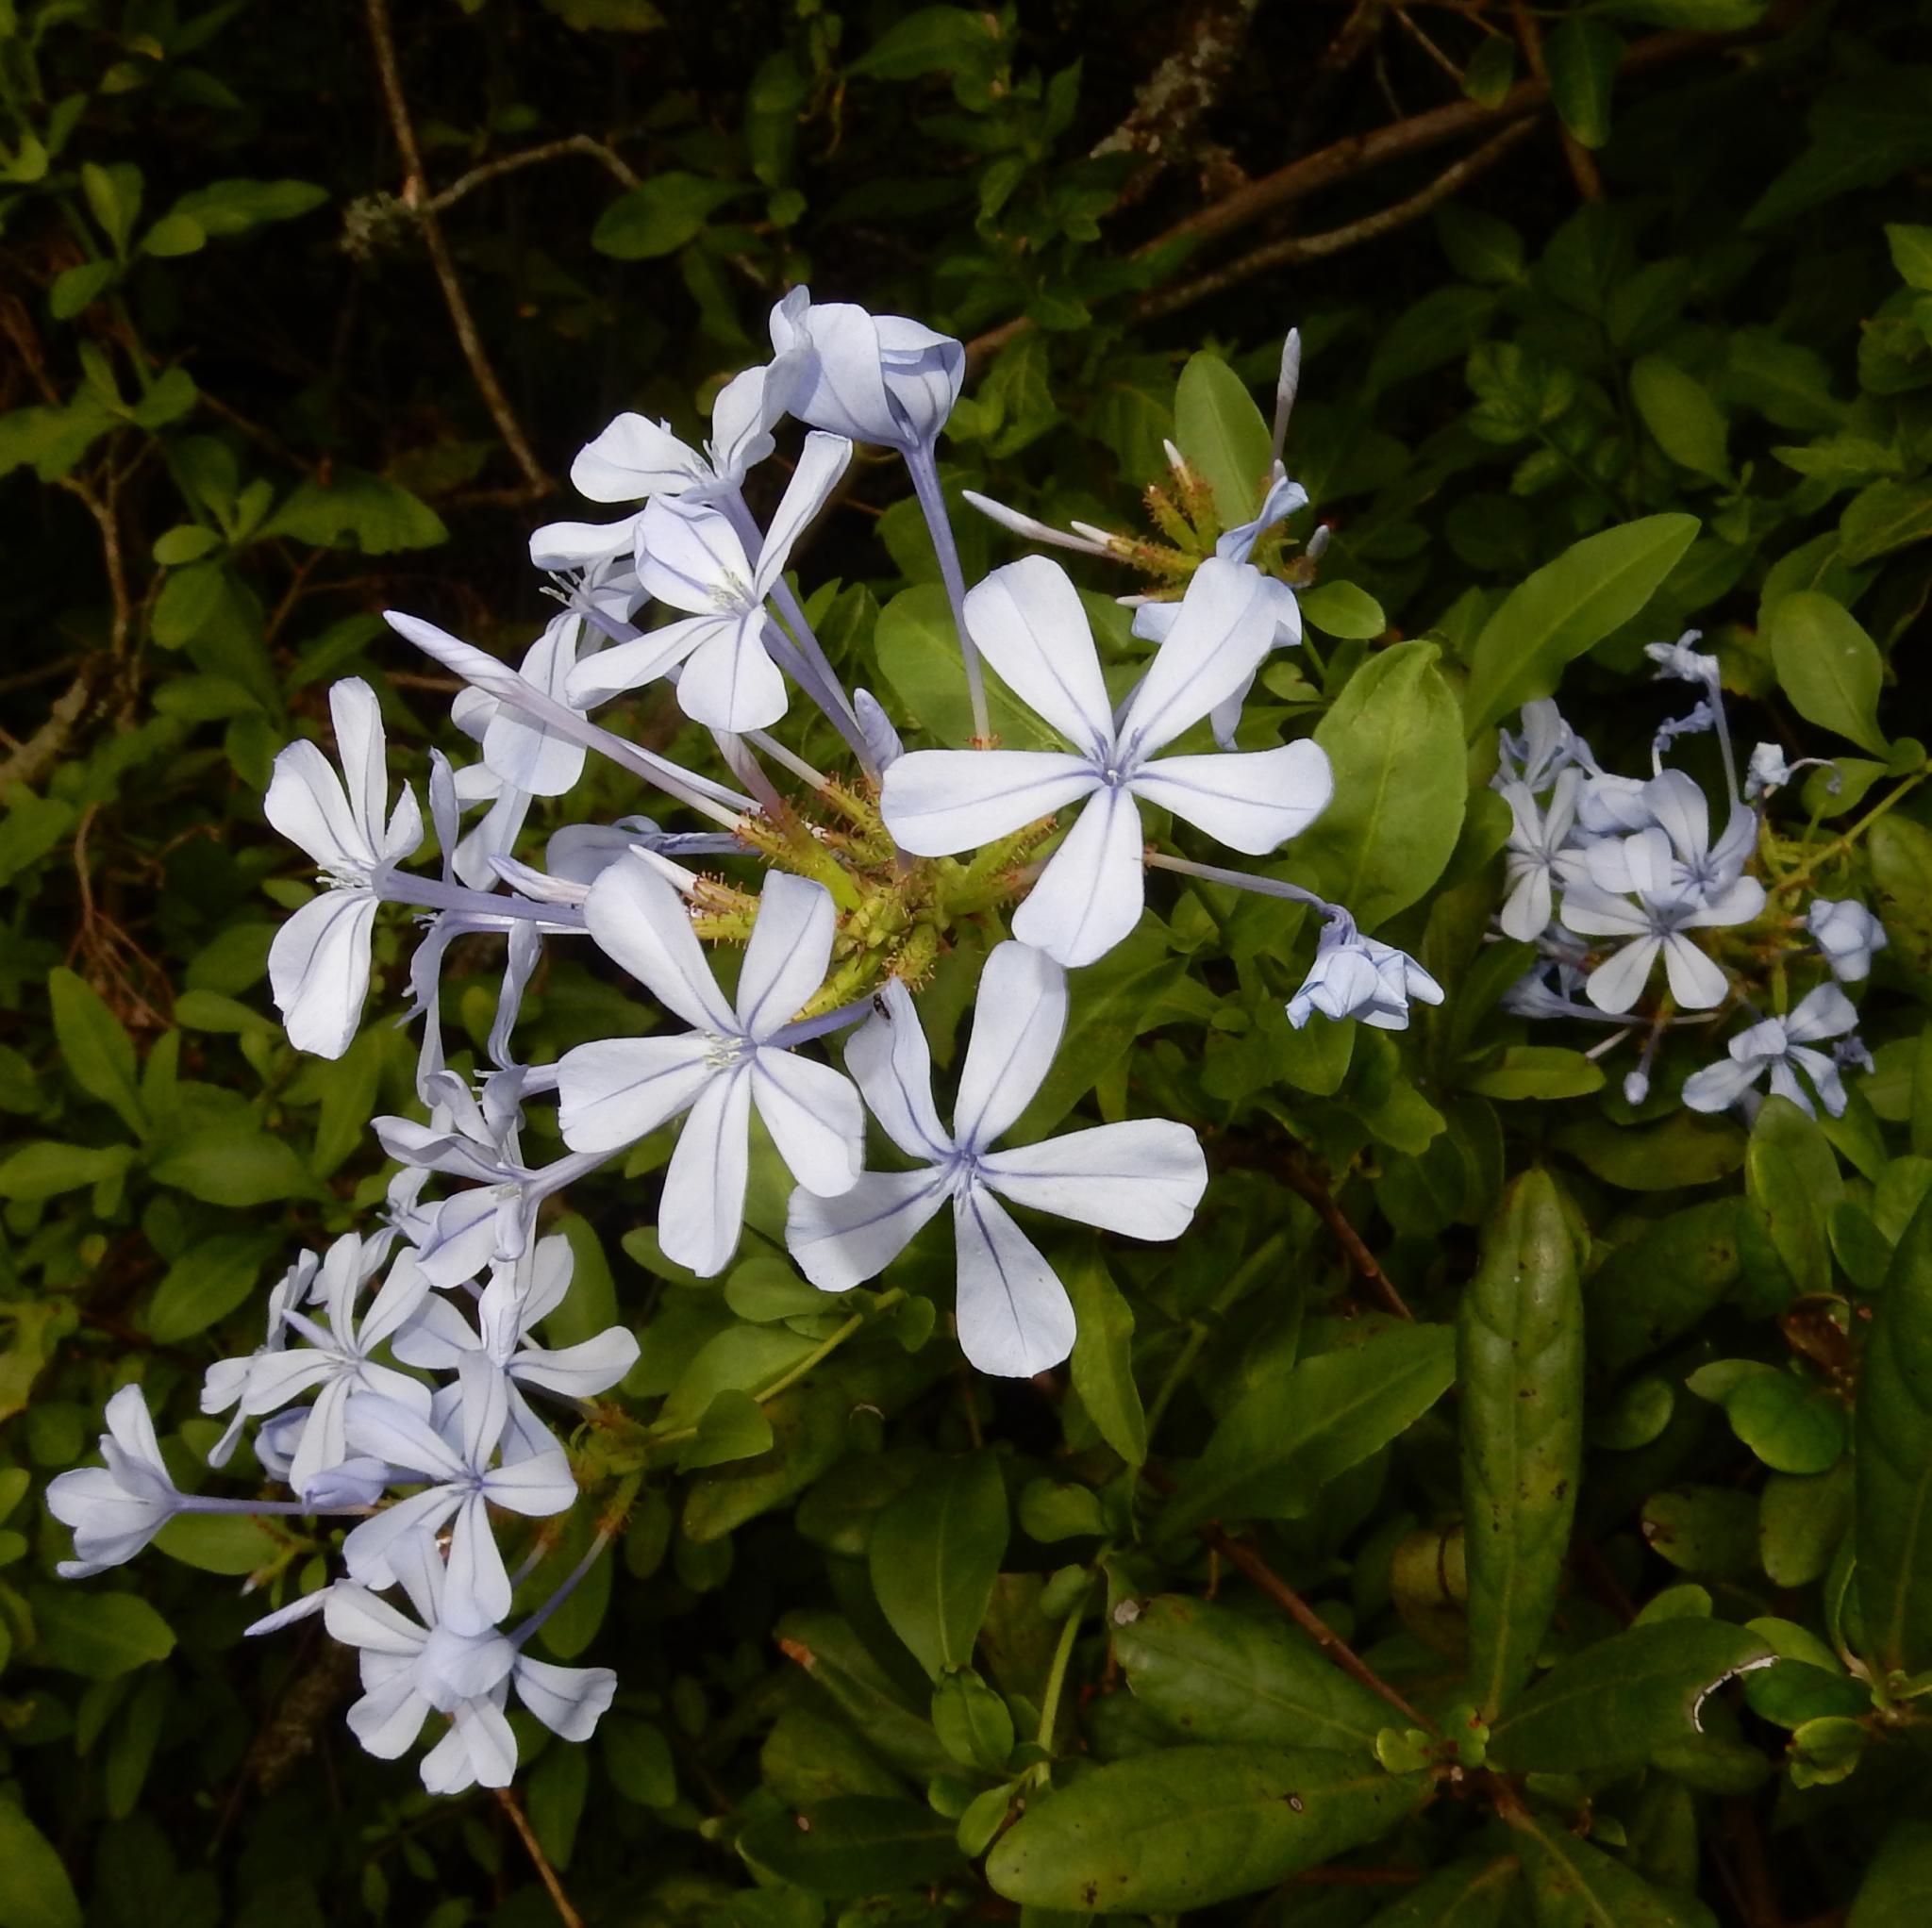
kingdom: Plantae
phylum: Tracheophyta
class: Magnoliopsida
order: Caryophyllales
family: Plumbaginaceae
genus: Plumbago
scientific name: Plumbago auriculata
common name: Cape leadwort
